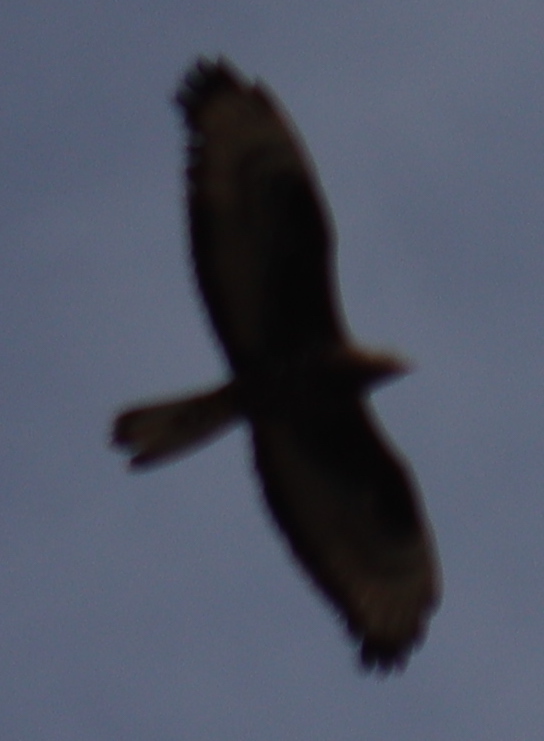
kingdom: Animalia
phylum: Chordata
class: Aves
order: Accipitriformes
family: Accipitridae
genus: Buteo
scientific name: Buteo buteo
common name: Common buzzard
